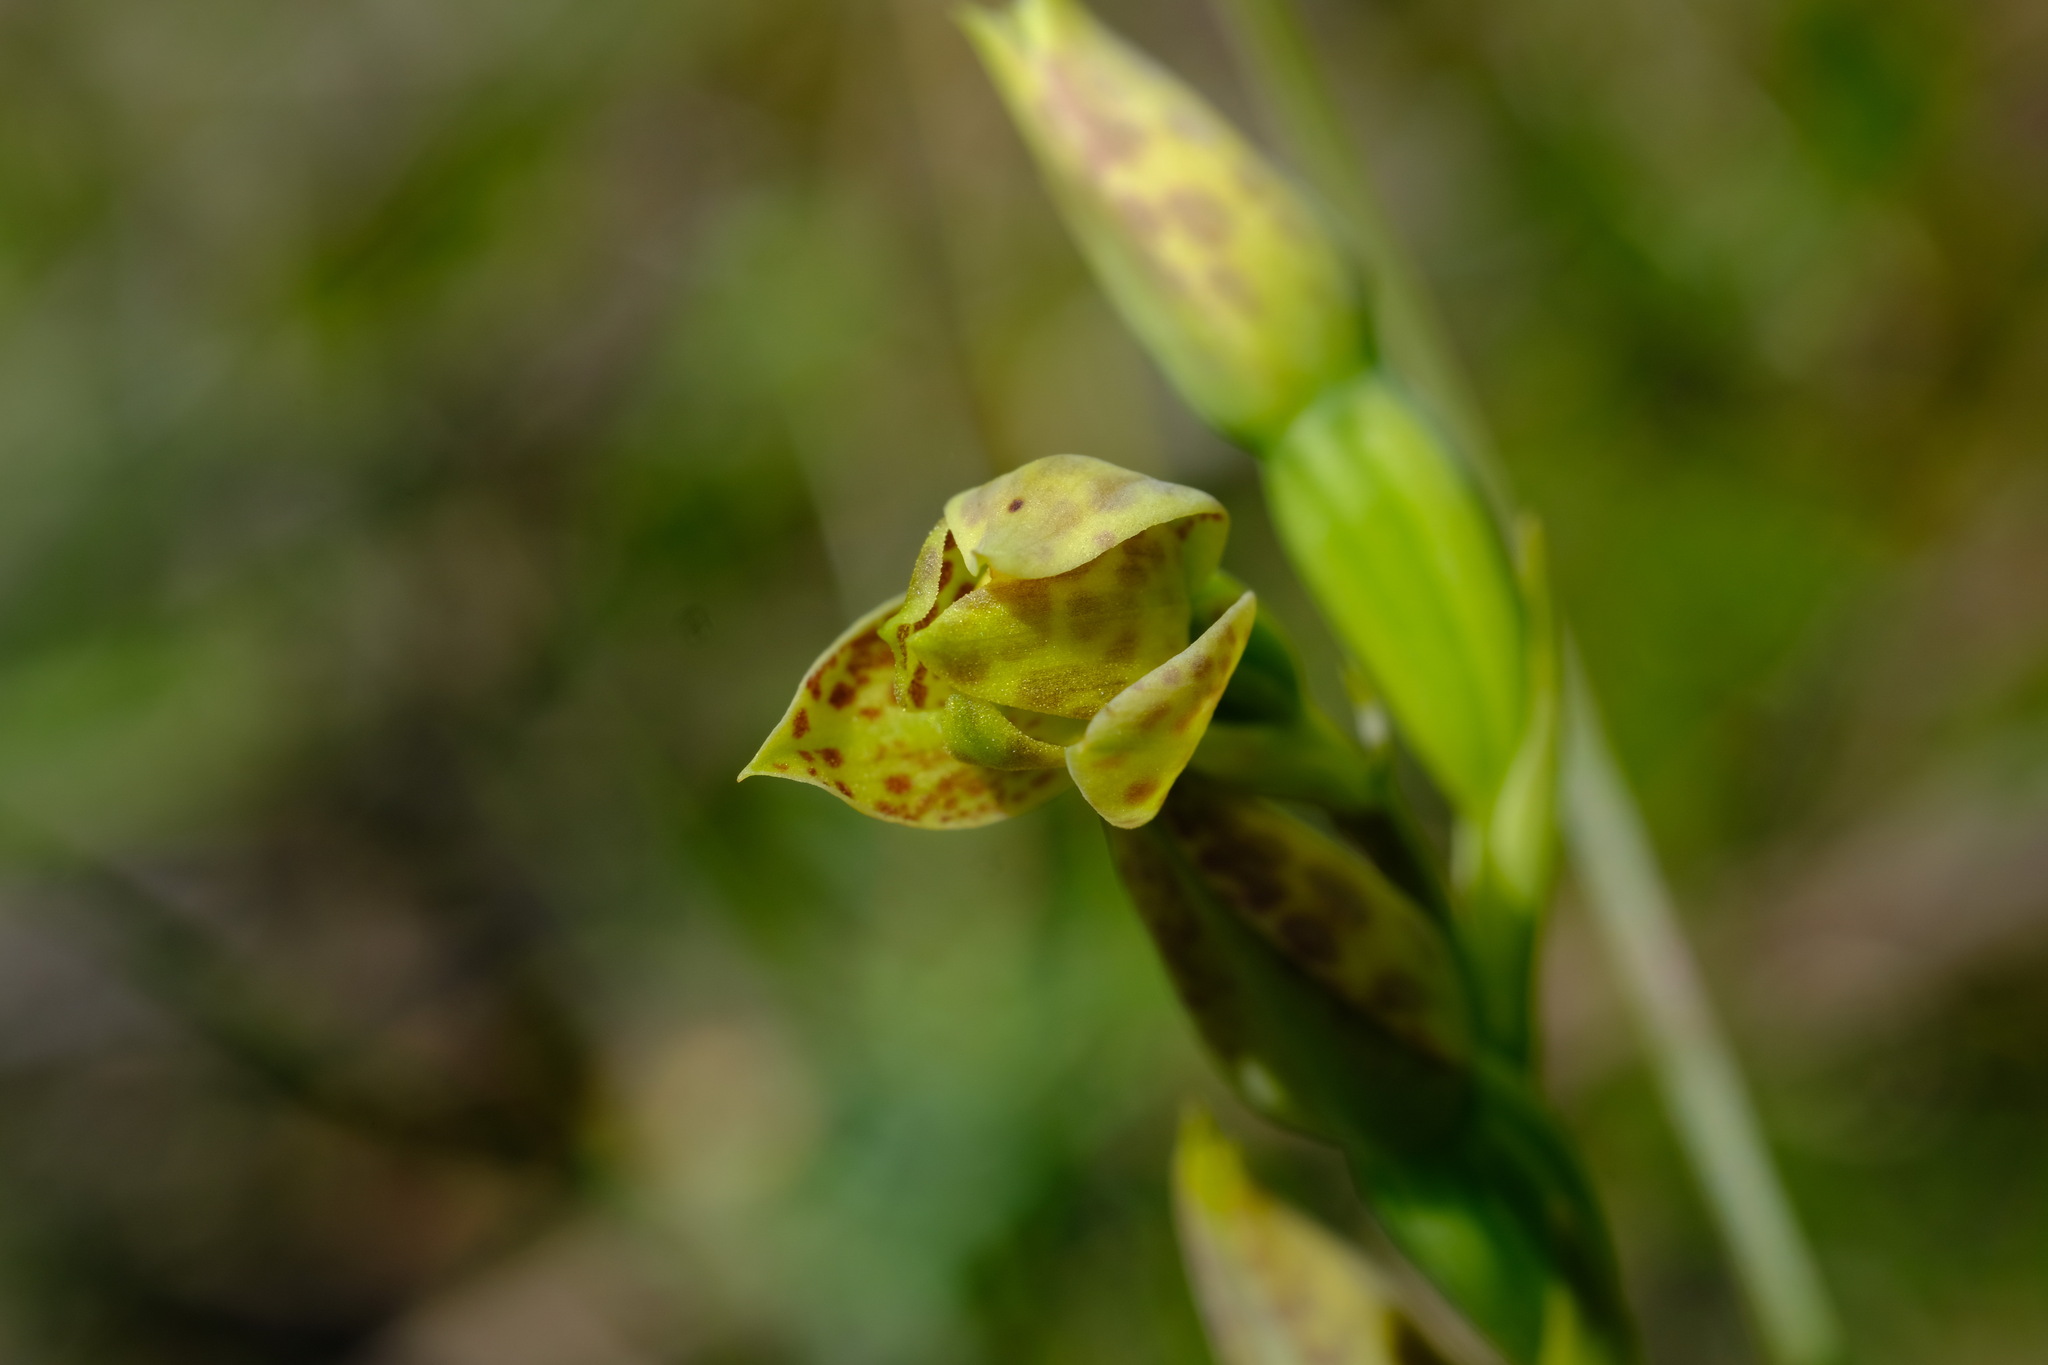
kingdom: Plantae
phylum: Tracheophyta
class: Liliopsida
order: Asparagales
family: Orchidaceae
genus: Thelymitra
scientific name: Thelymitra benthamiana
